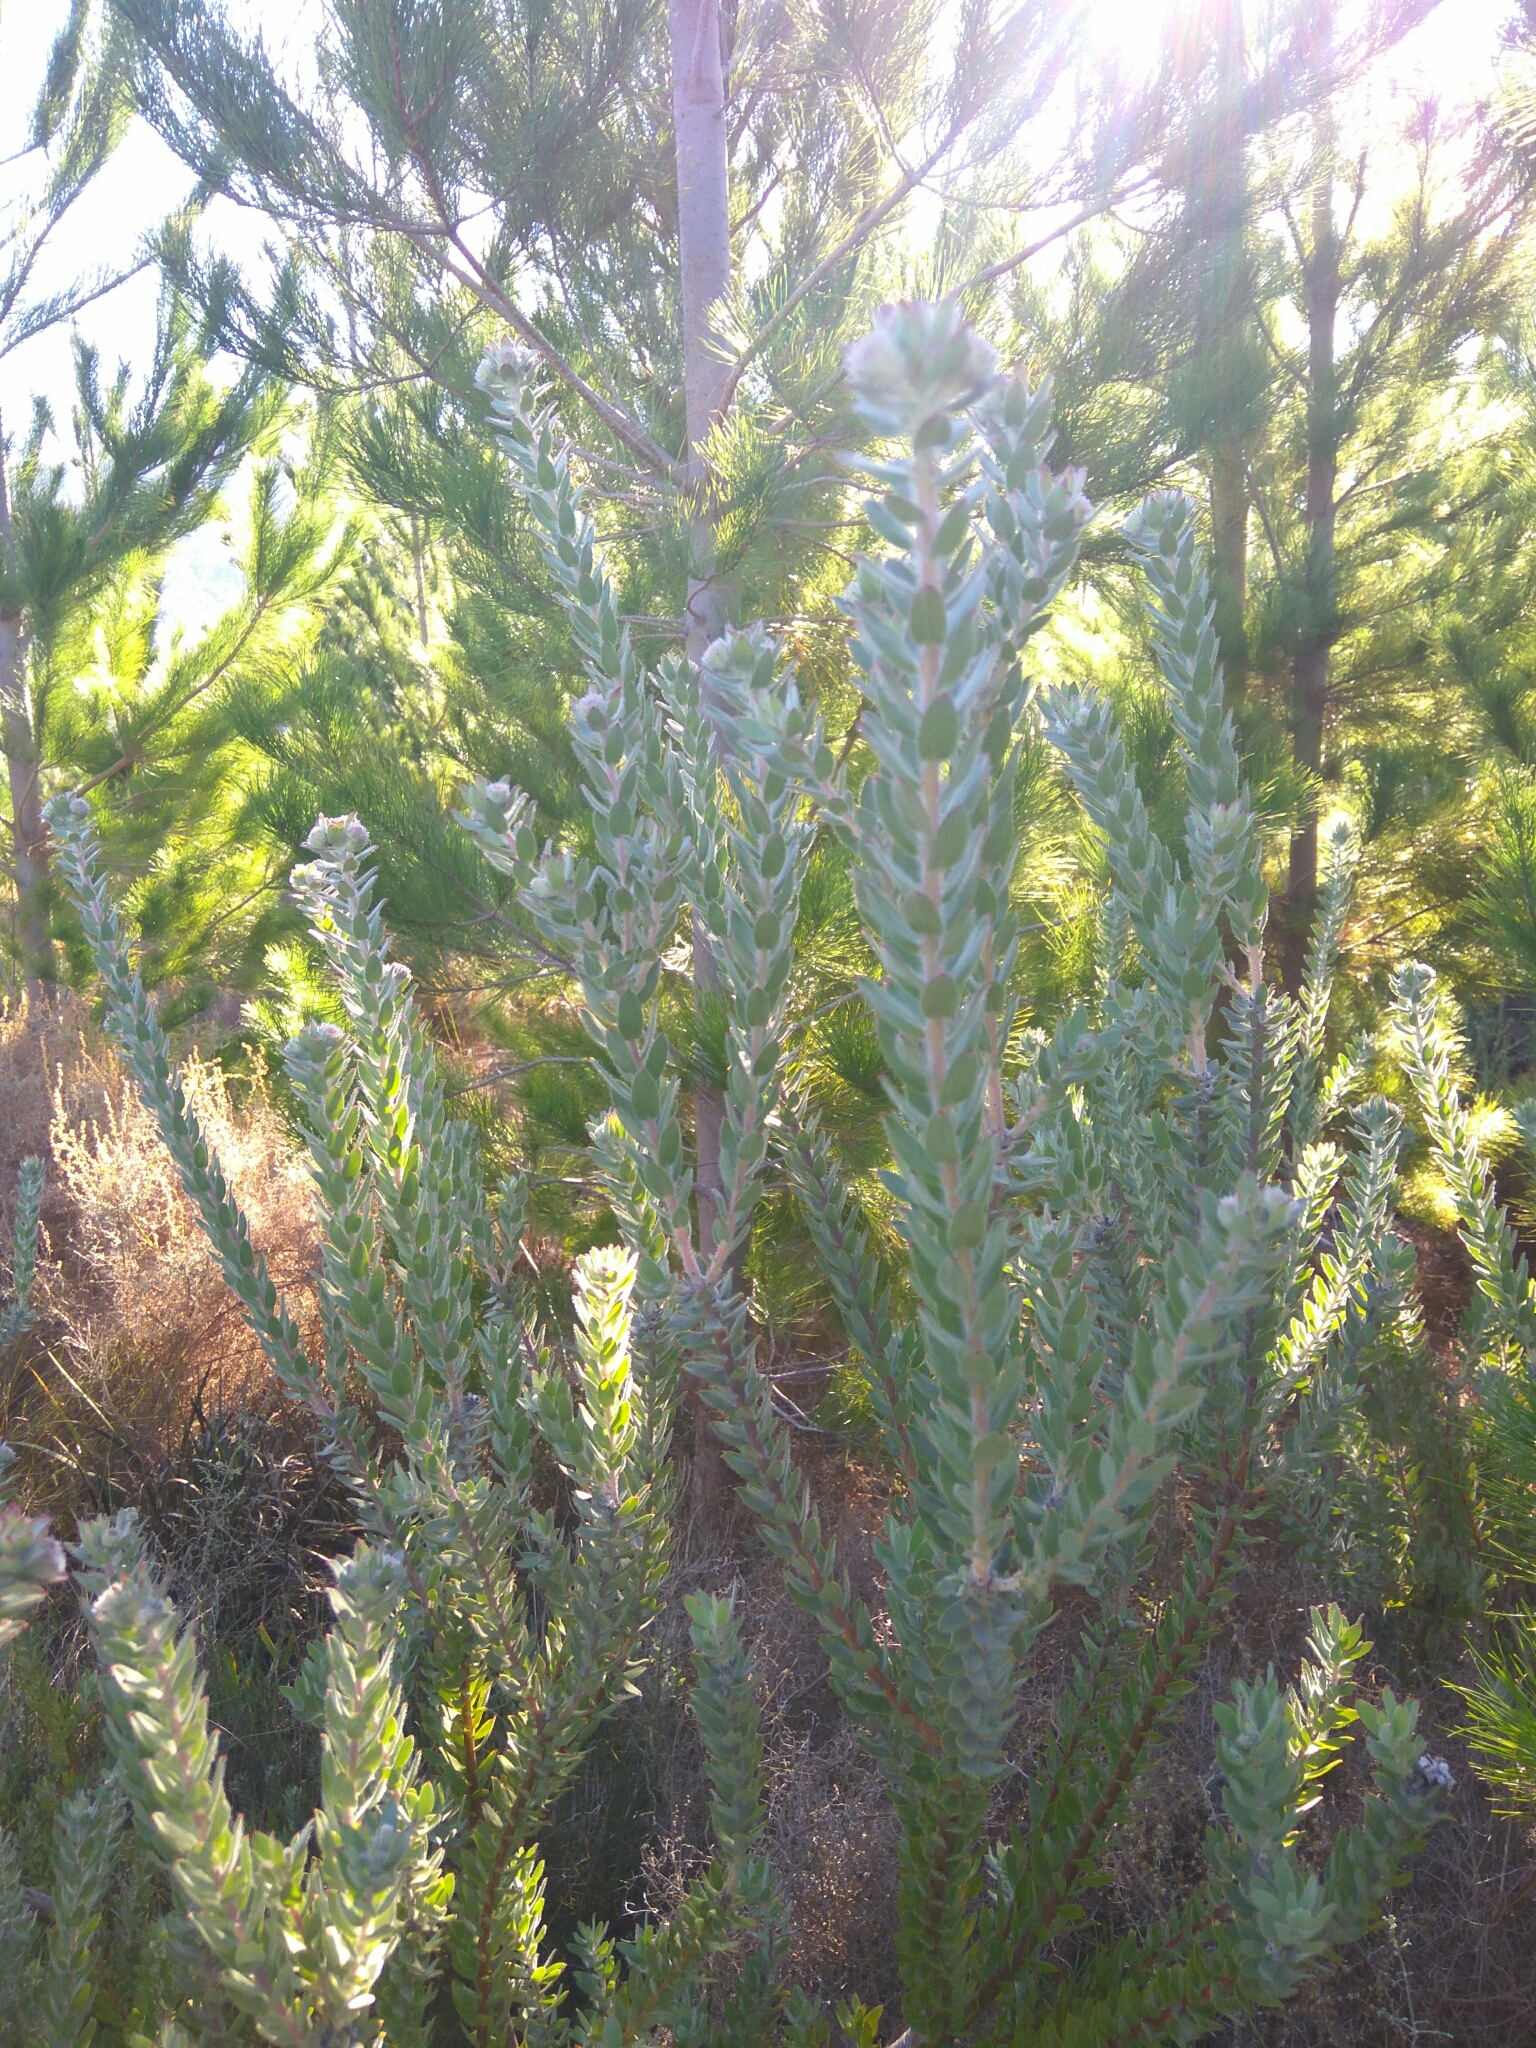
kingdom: Plantae
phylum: Tracheophyta
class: Magnoliopsida
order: Proteales
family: Proteaceae
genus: Leucospermum
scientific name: Leucospermum calligerum
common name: Arid pincushion
